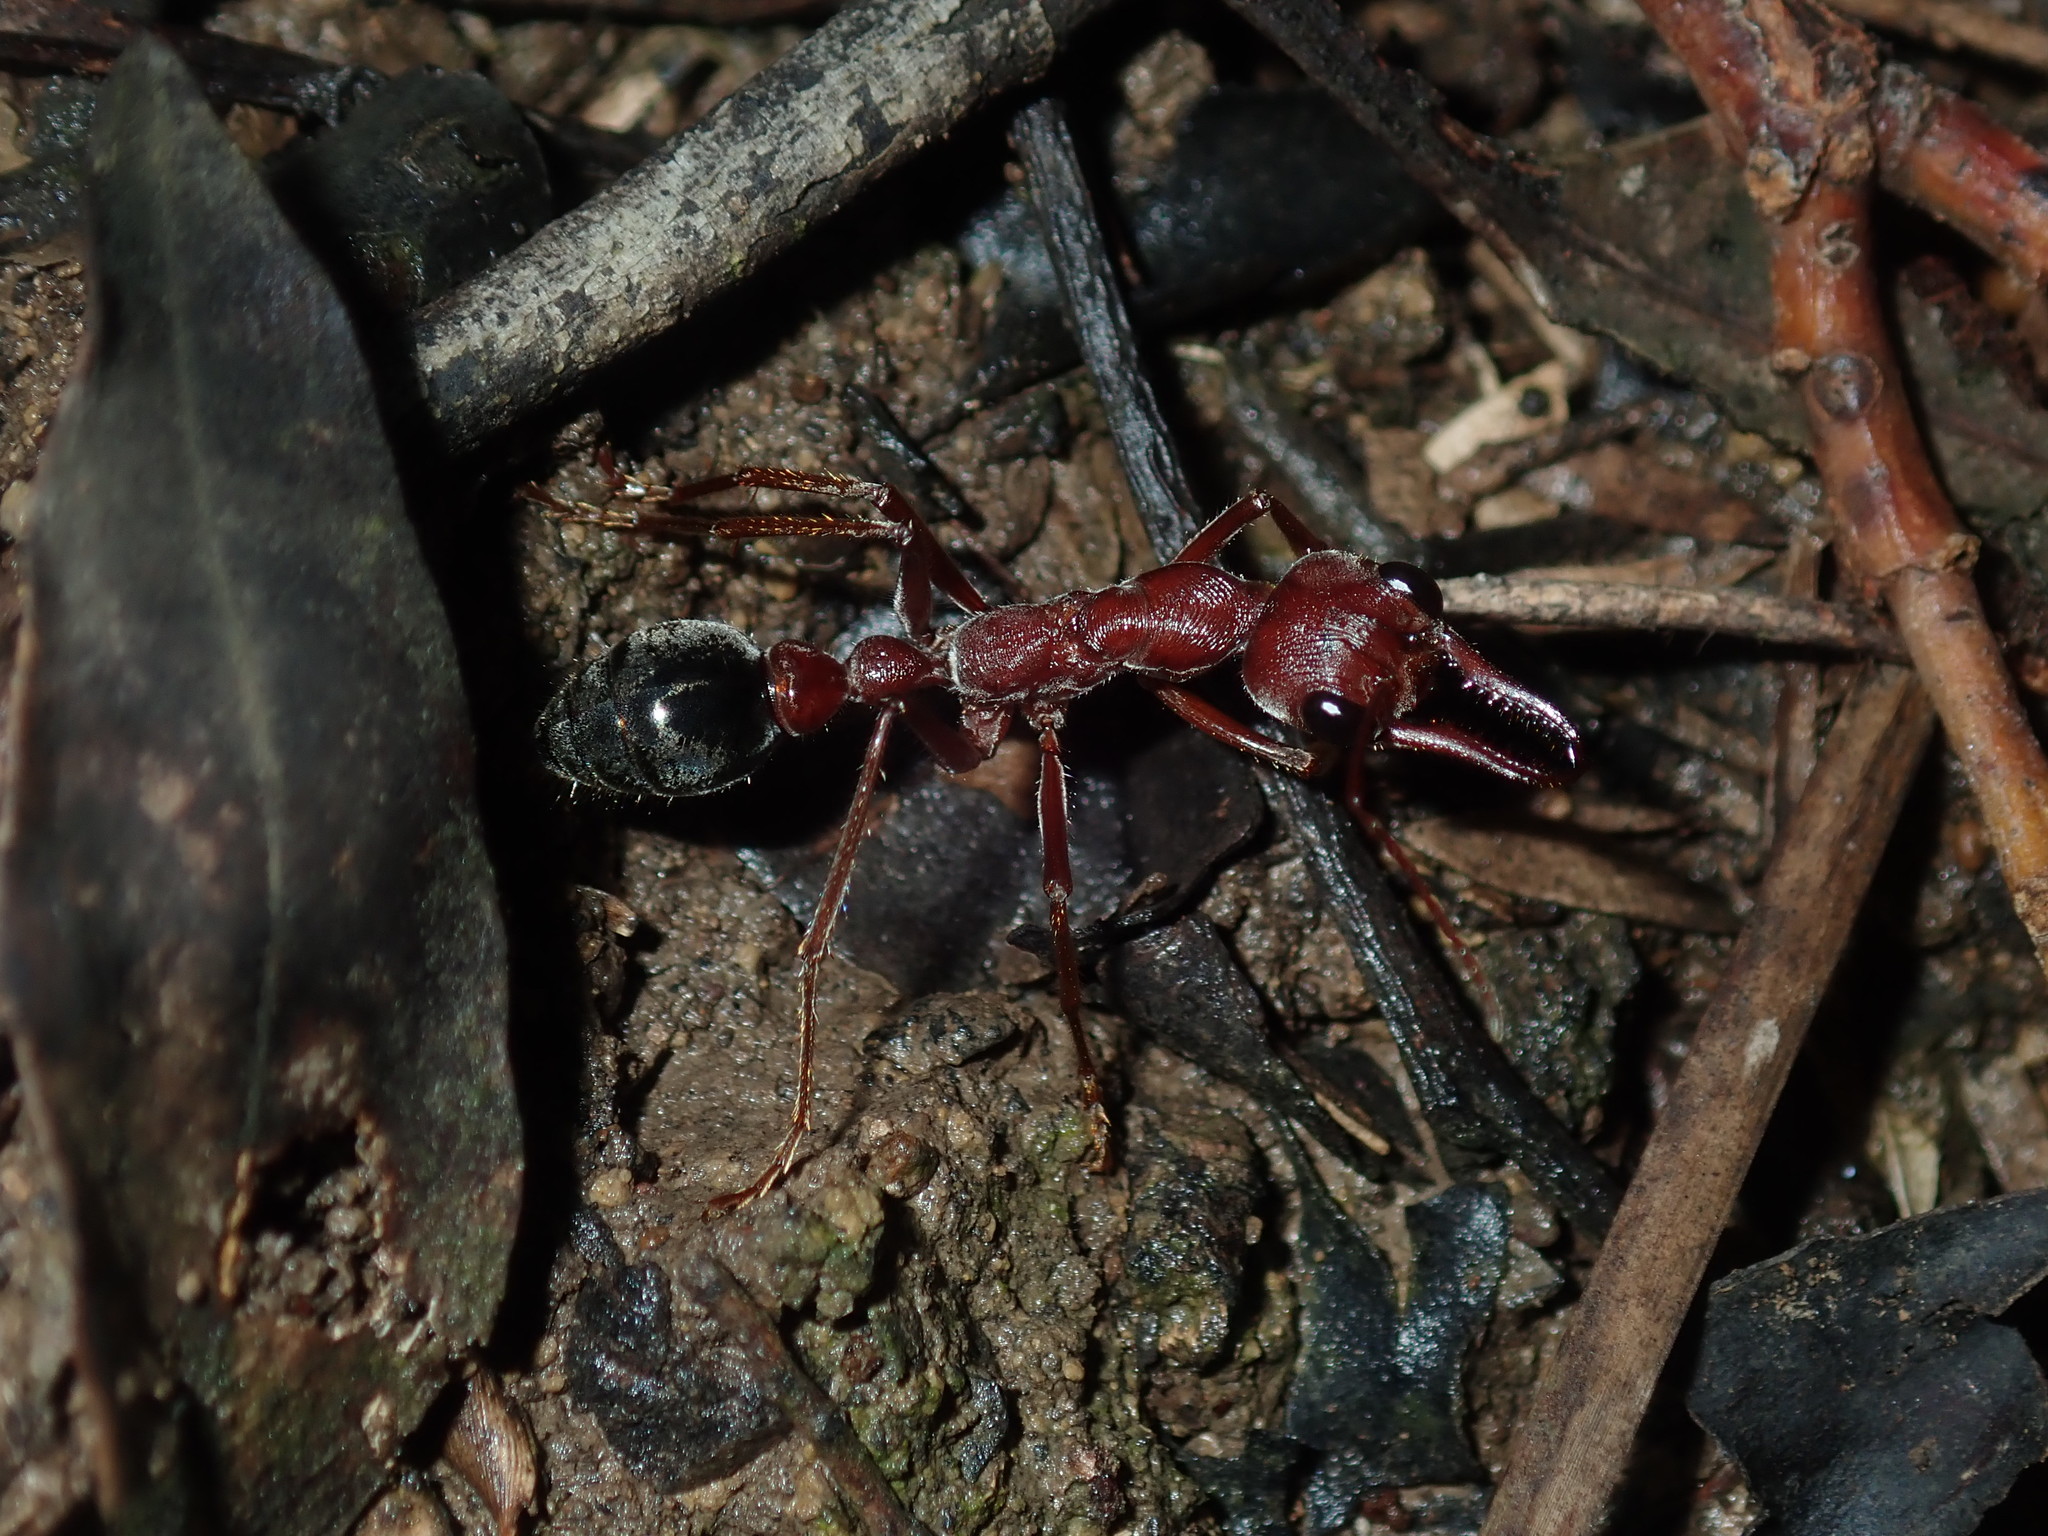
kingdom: Animalia
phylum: Arthropoda
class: Insecta
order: Hymenoptera
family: Formicidae
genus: Myrmecia
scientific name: Myrmecia brevinoda
